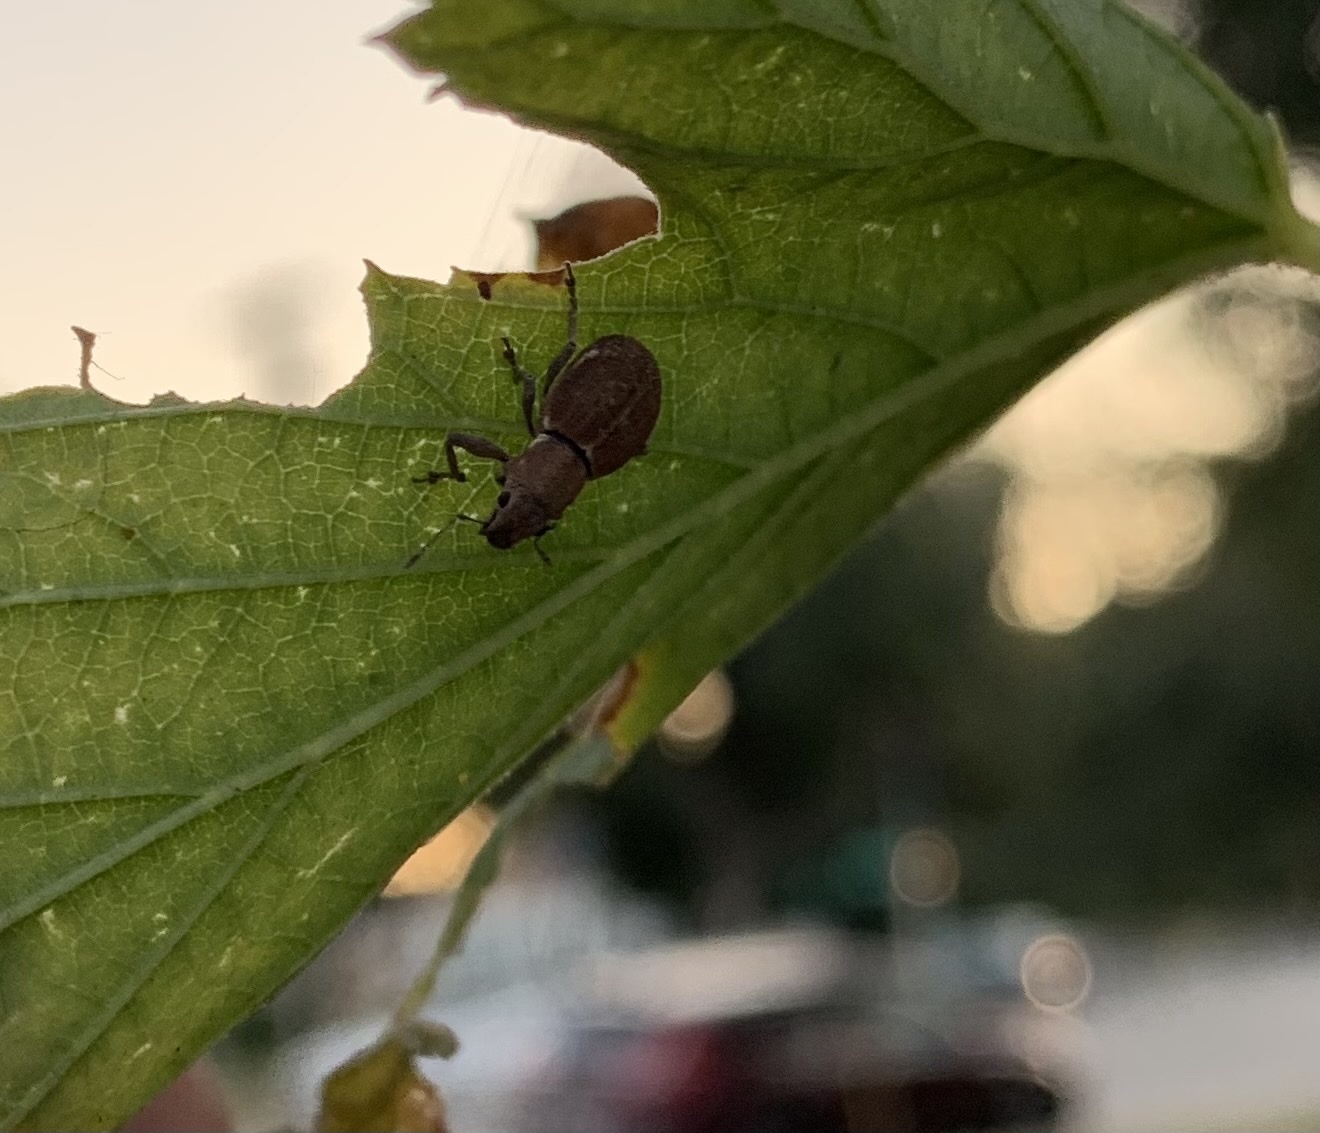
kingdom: Animalia
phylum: Arthropoda
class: Insecta
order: Coleoptera
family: Curculionidae
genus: Naupactus
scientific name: Naupactus cervinus
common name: Fuller rose beetle
